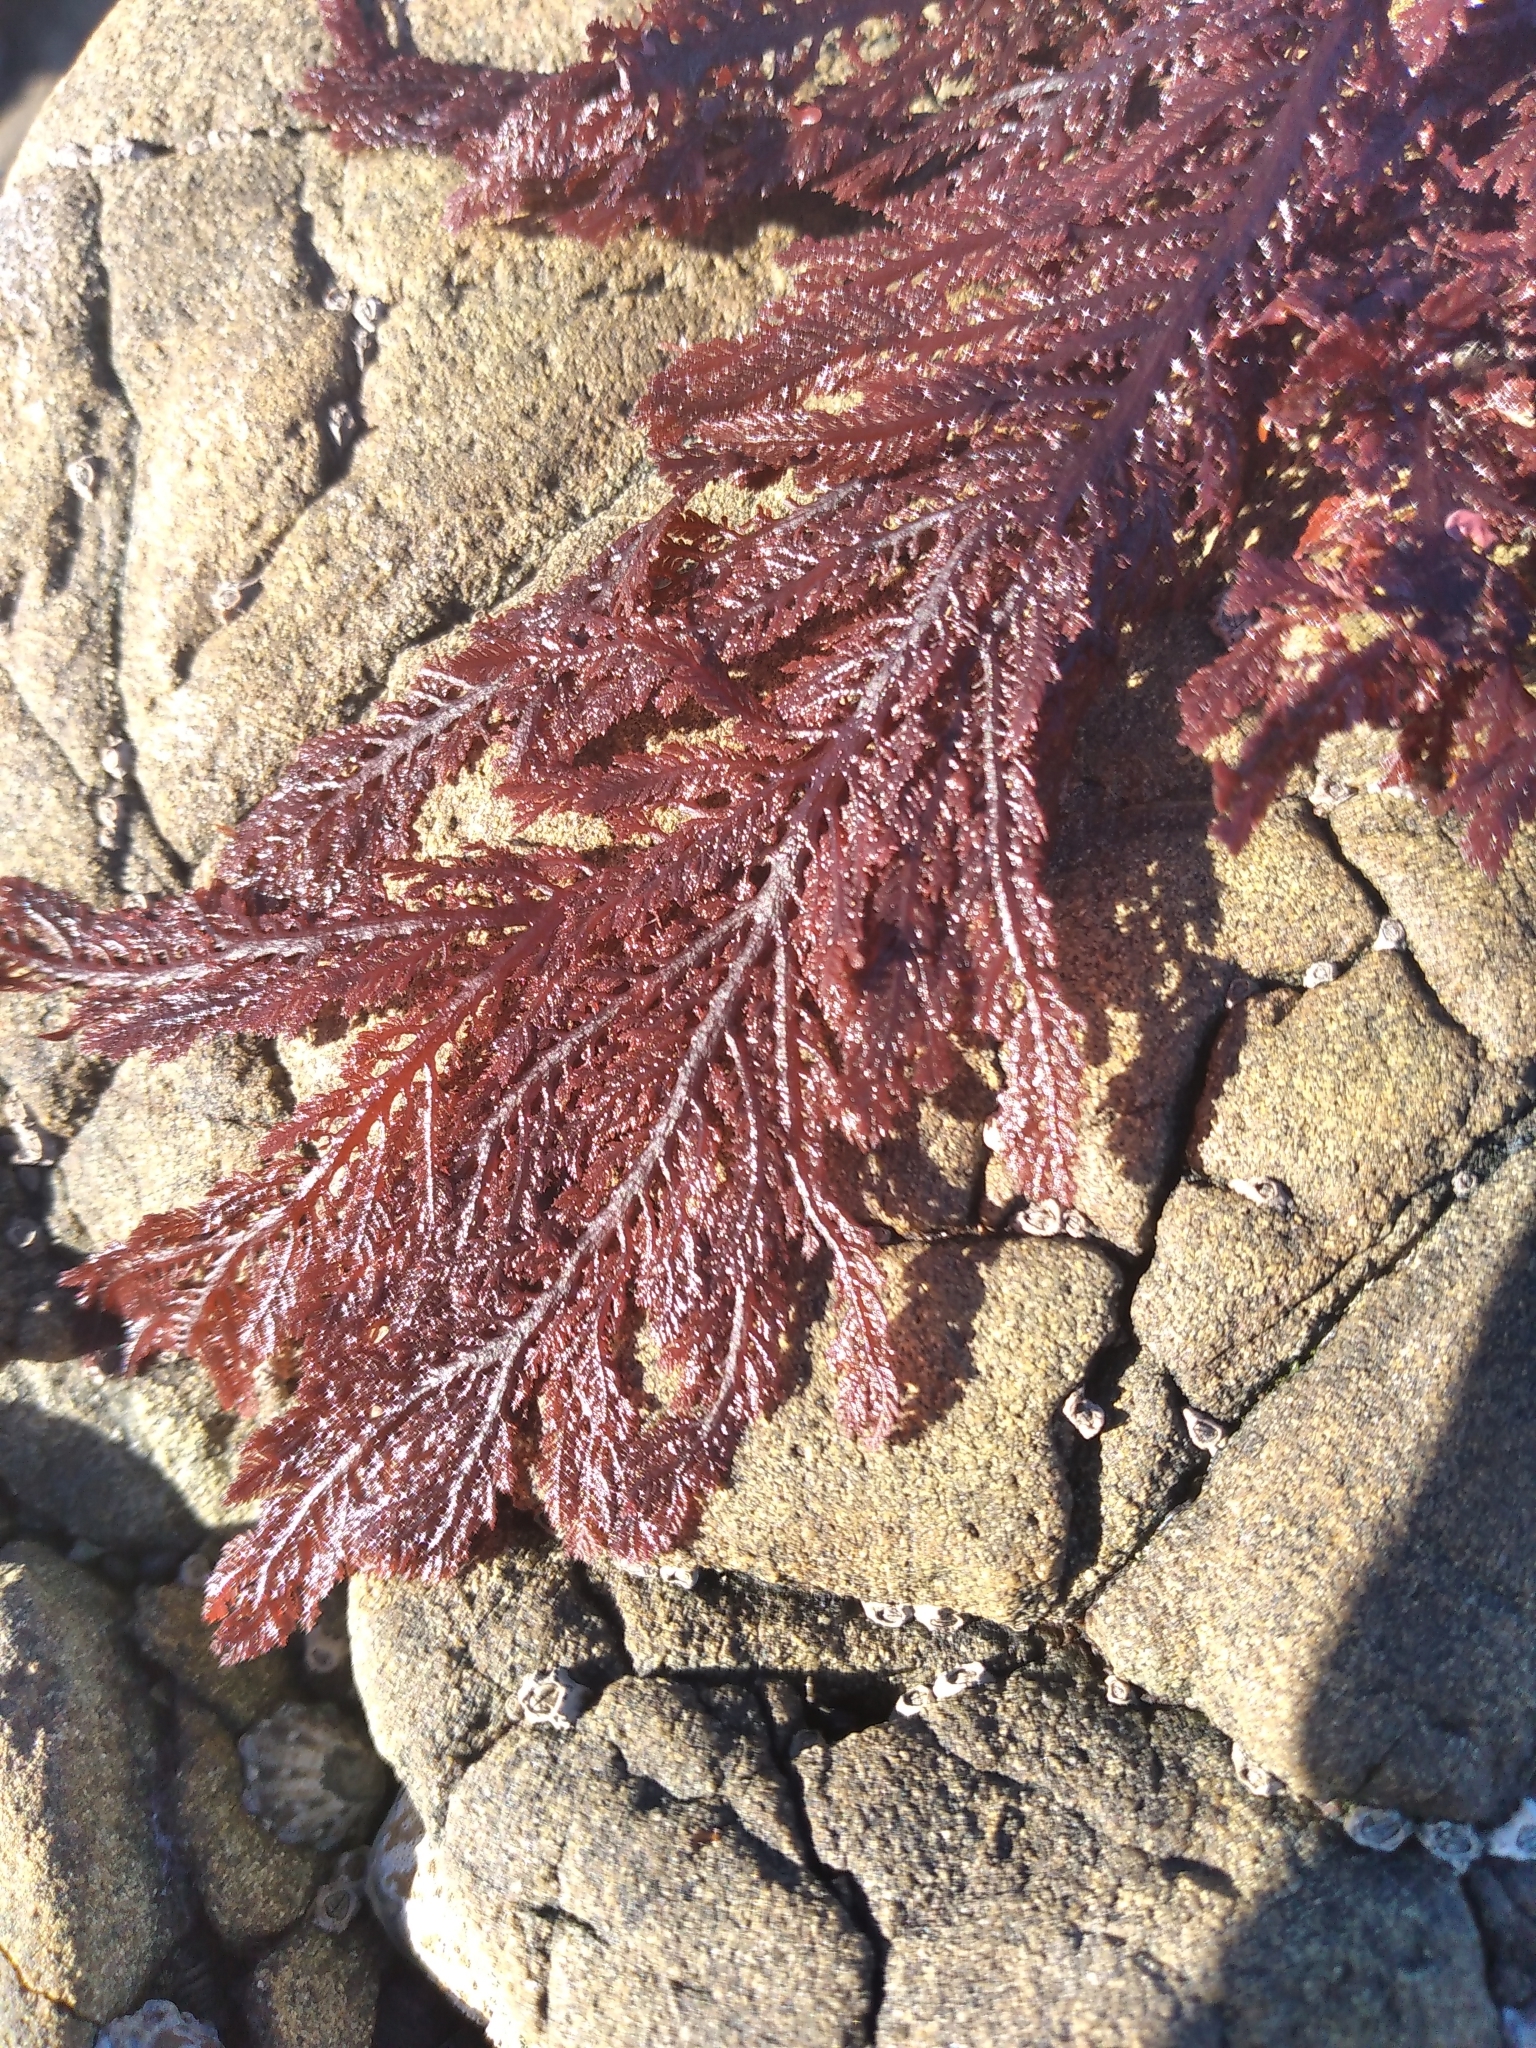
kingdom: Plantae
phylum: Rhodophyta
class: Florideophyceae
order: Ceramiales
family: Callithamniaceae
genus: Euptilota
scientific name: Euptilota formosissima
